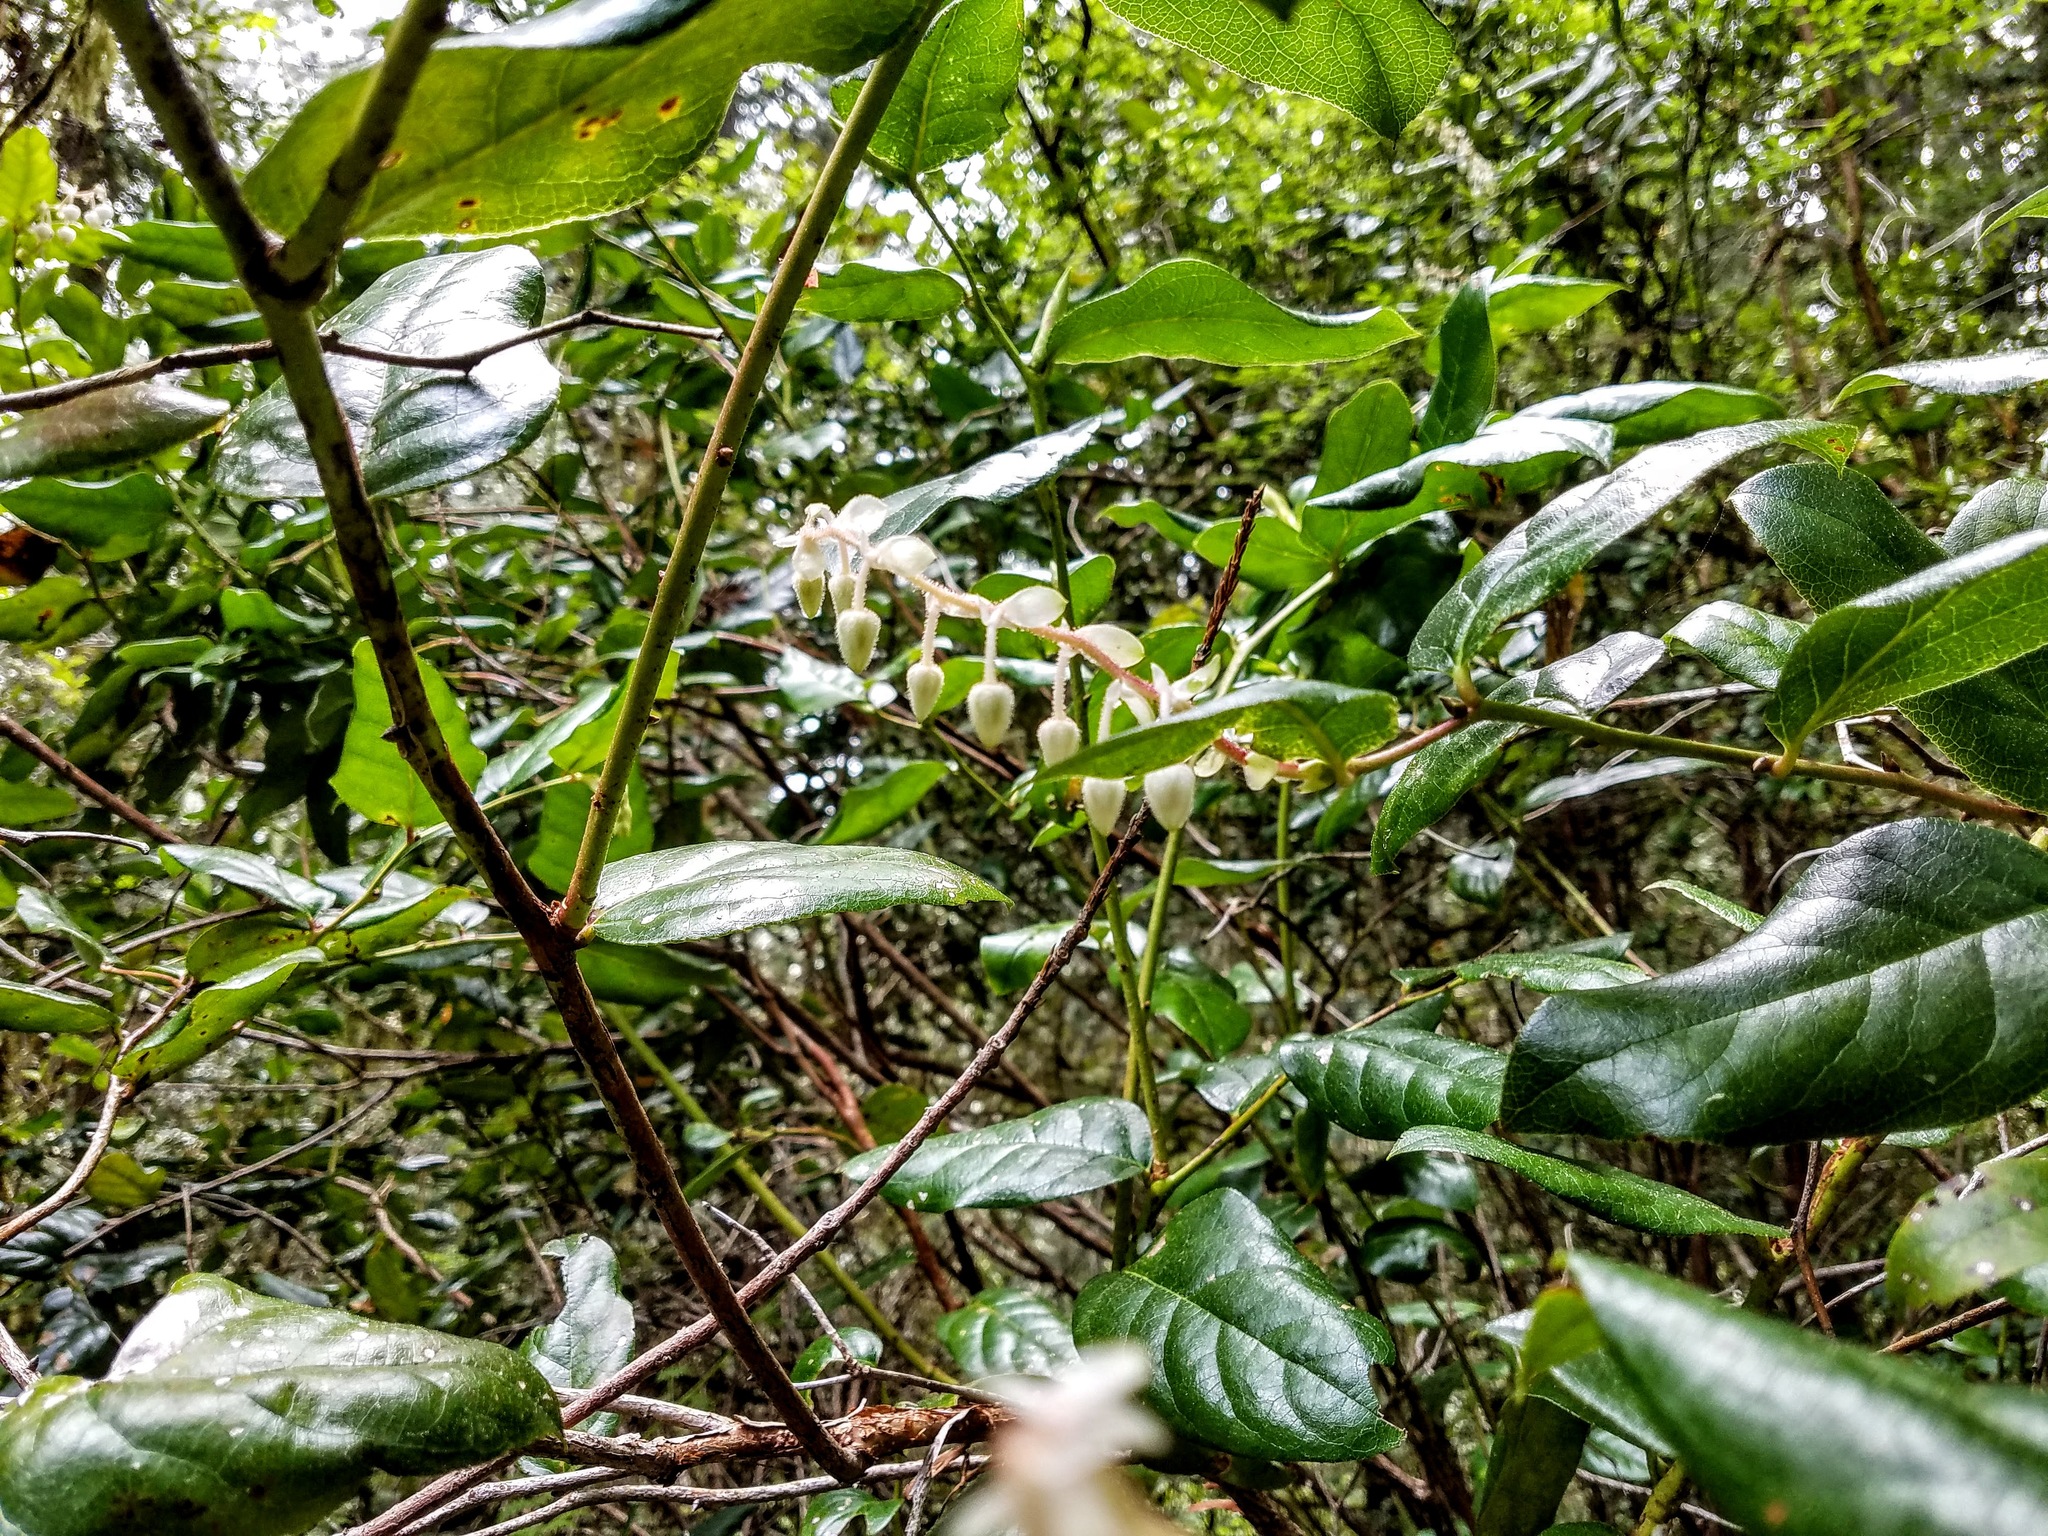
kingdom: Plantae
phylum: Tracheophyta
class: Magnoliopsida
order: Ericales
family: Ericaceae
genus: Gaultheria
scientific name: Gaultheria shallon
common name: Shallon
